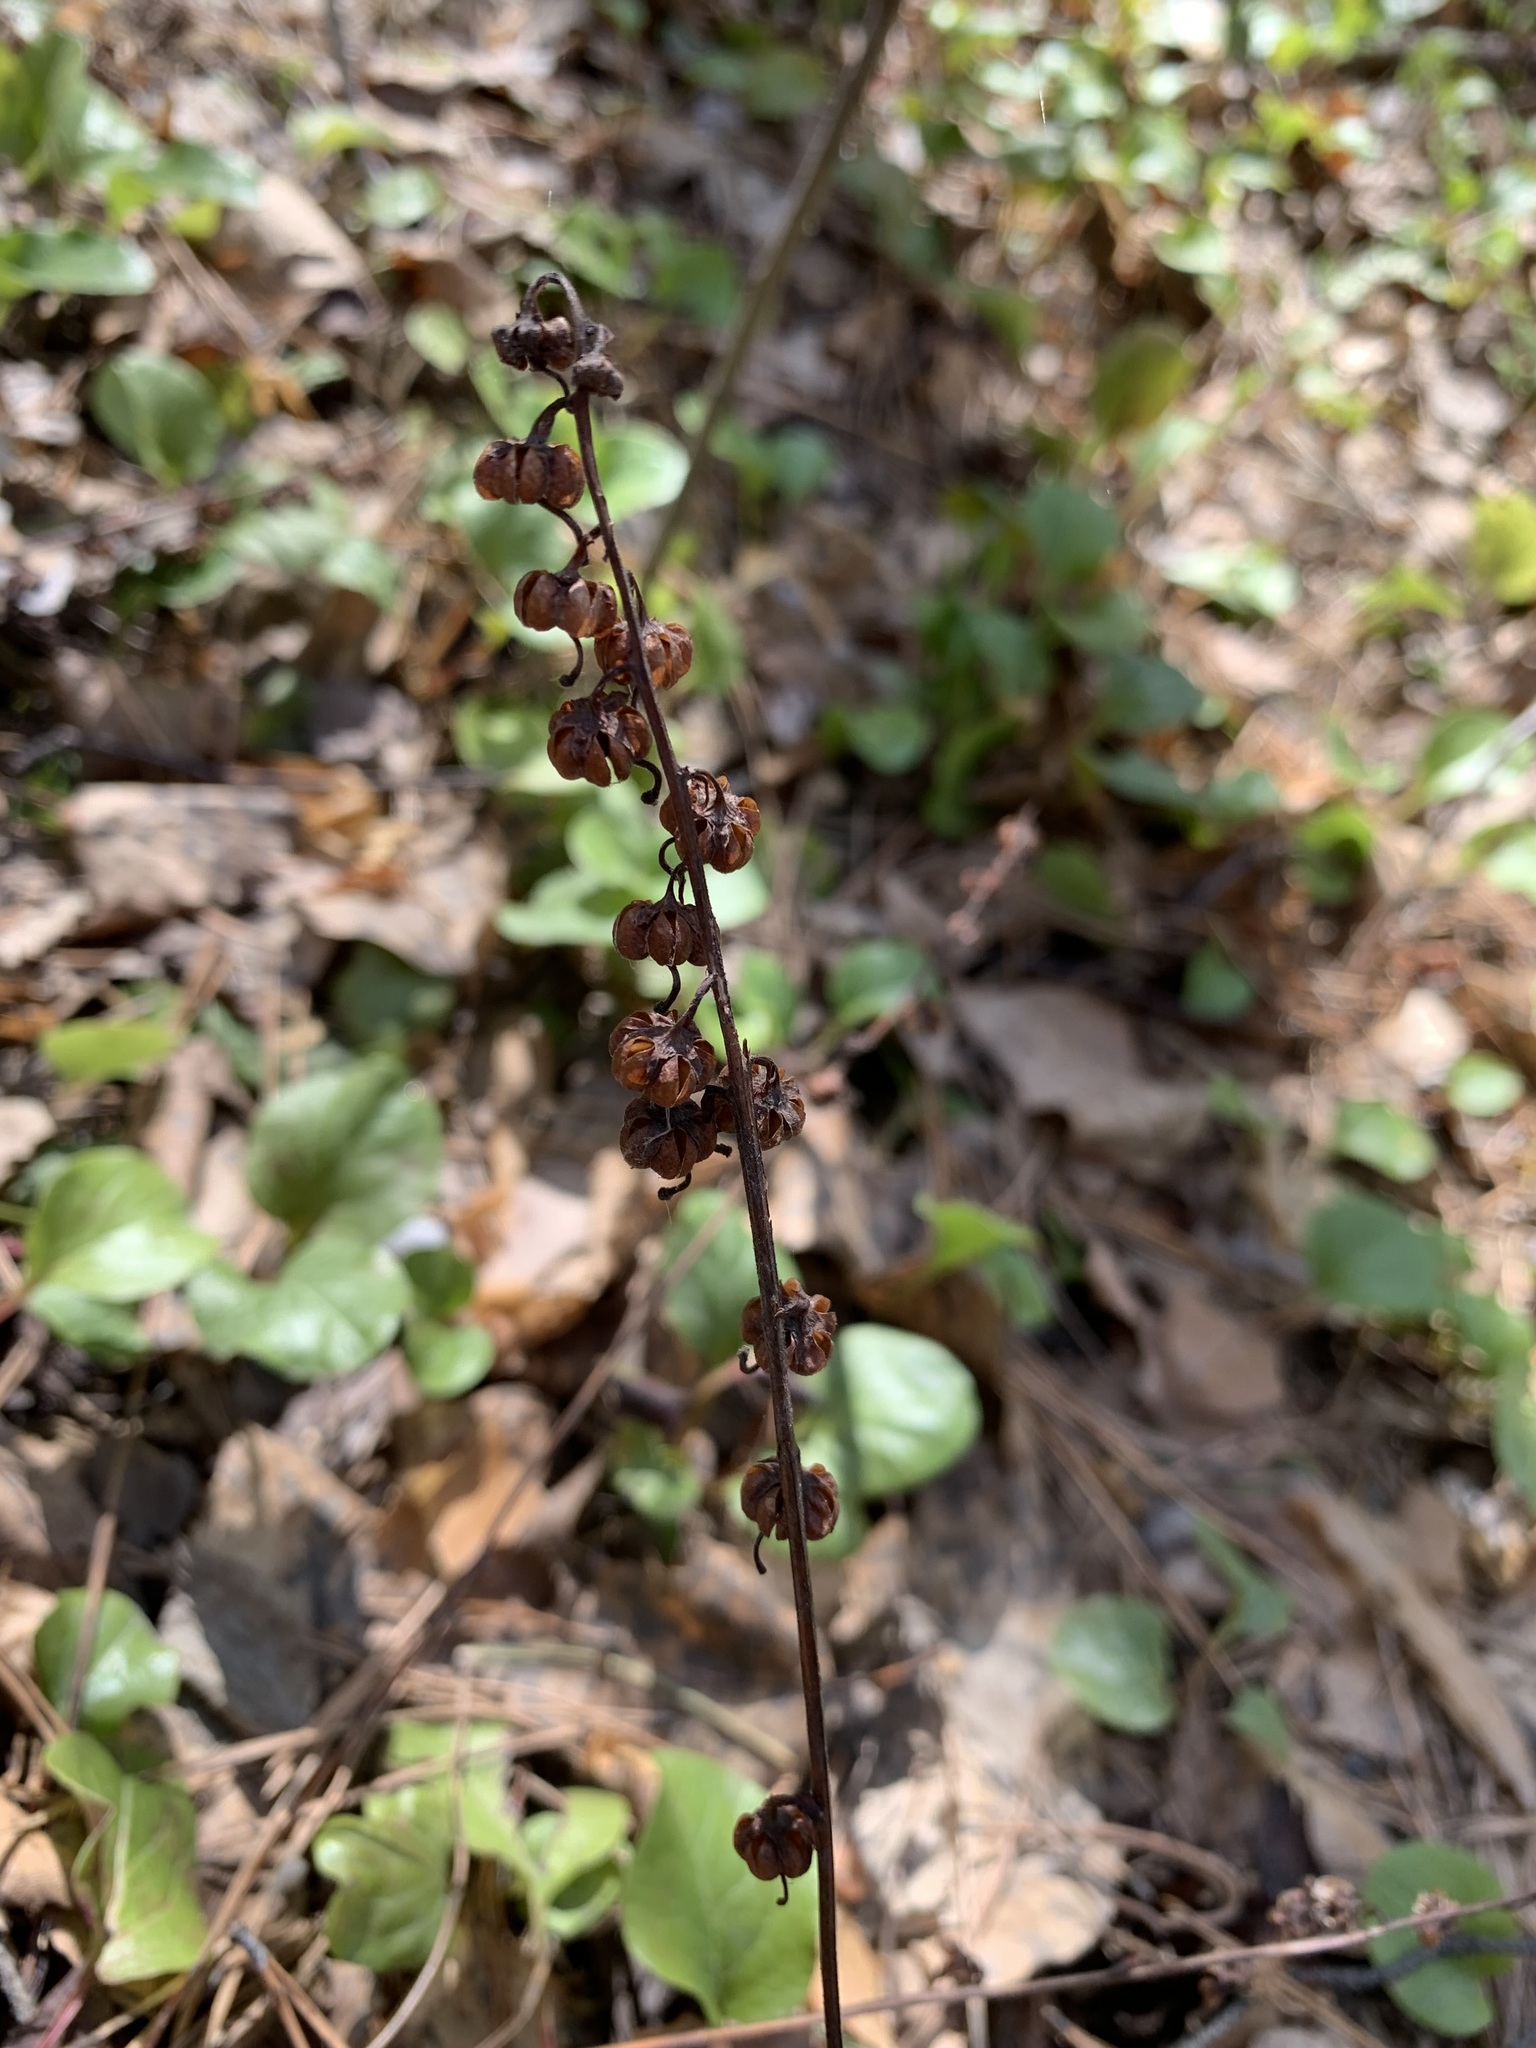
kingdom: Plantae
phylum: Tracheophyta
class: Magnoliopsida
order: Ericales
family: Ericaceae
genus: Pyrola
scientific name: Pyrola rotundifolia
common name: Round-leaved wintergreen
